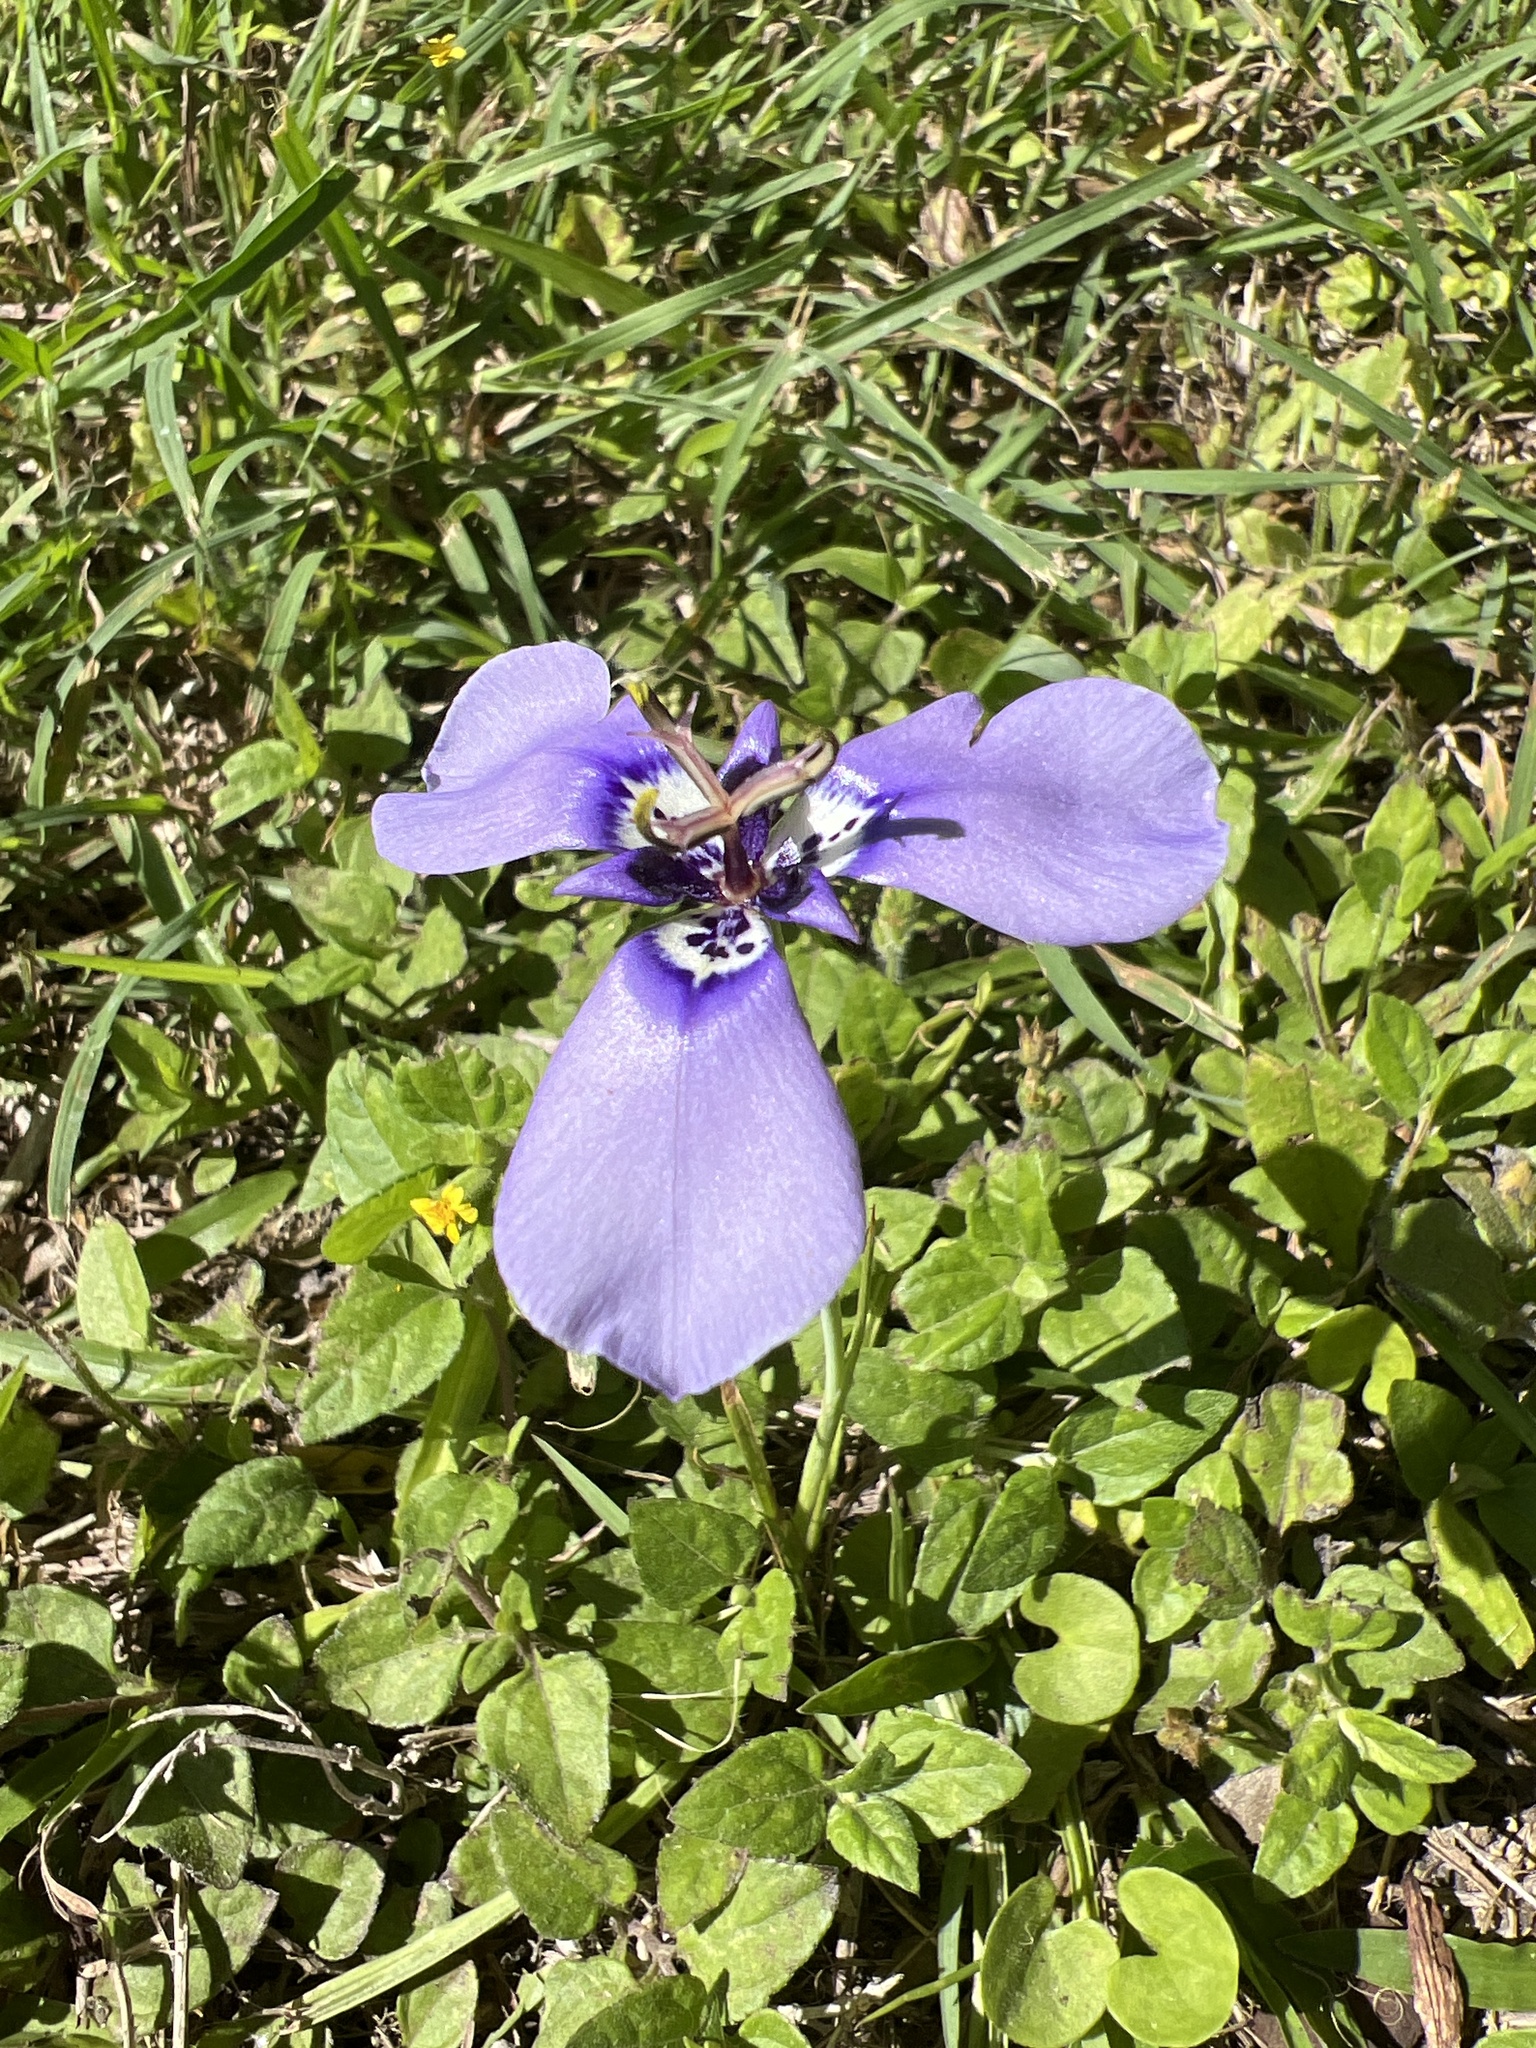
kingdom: Plantae
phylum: Tracheophyta
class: Liliopsida
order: Asparagales
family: Iridaceae
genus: Herbertia
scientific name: Herbertia lahue
